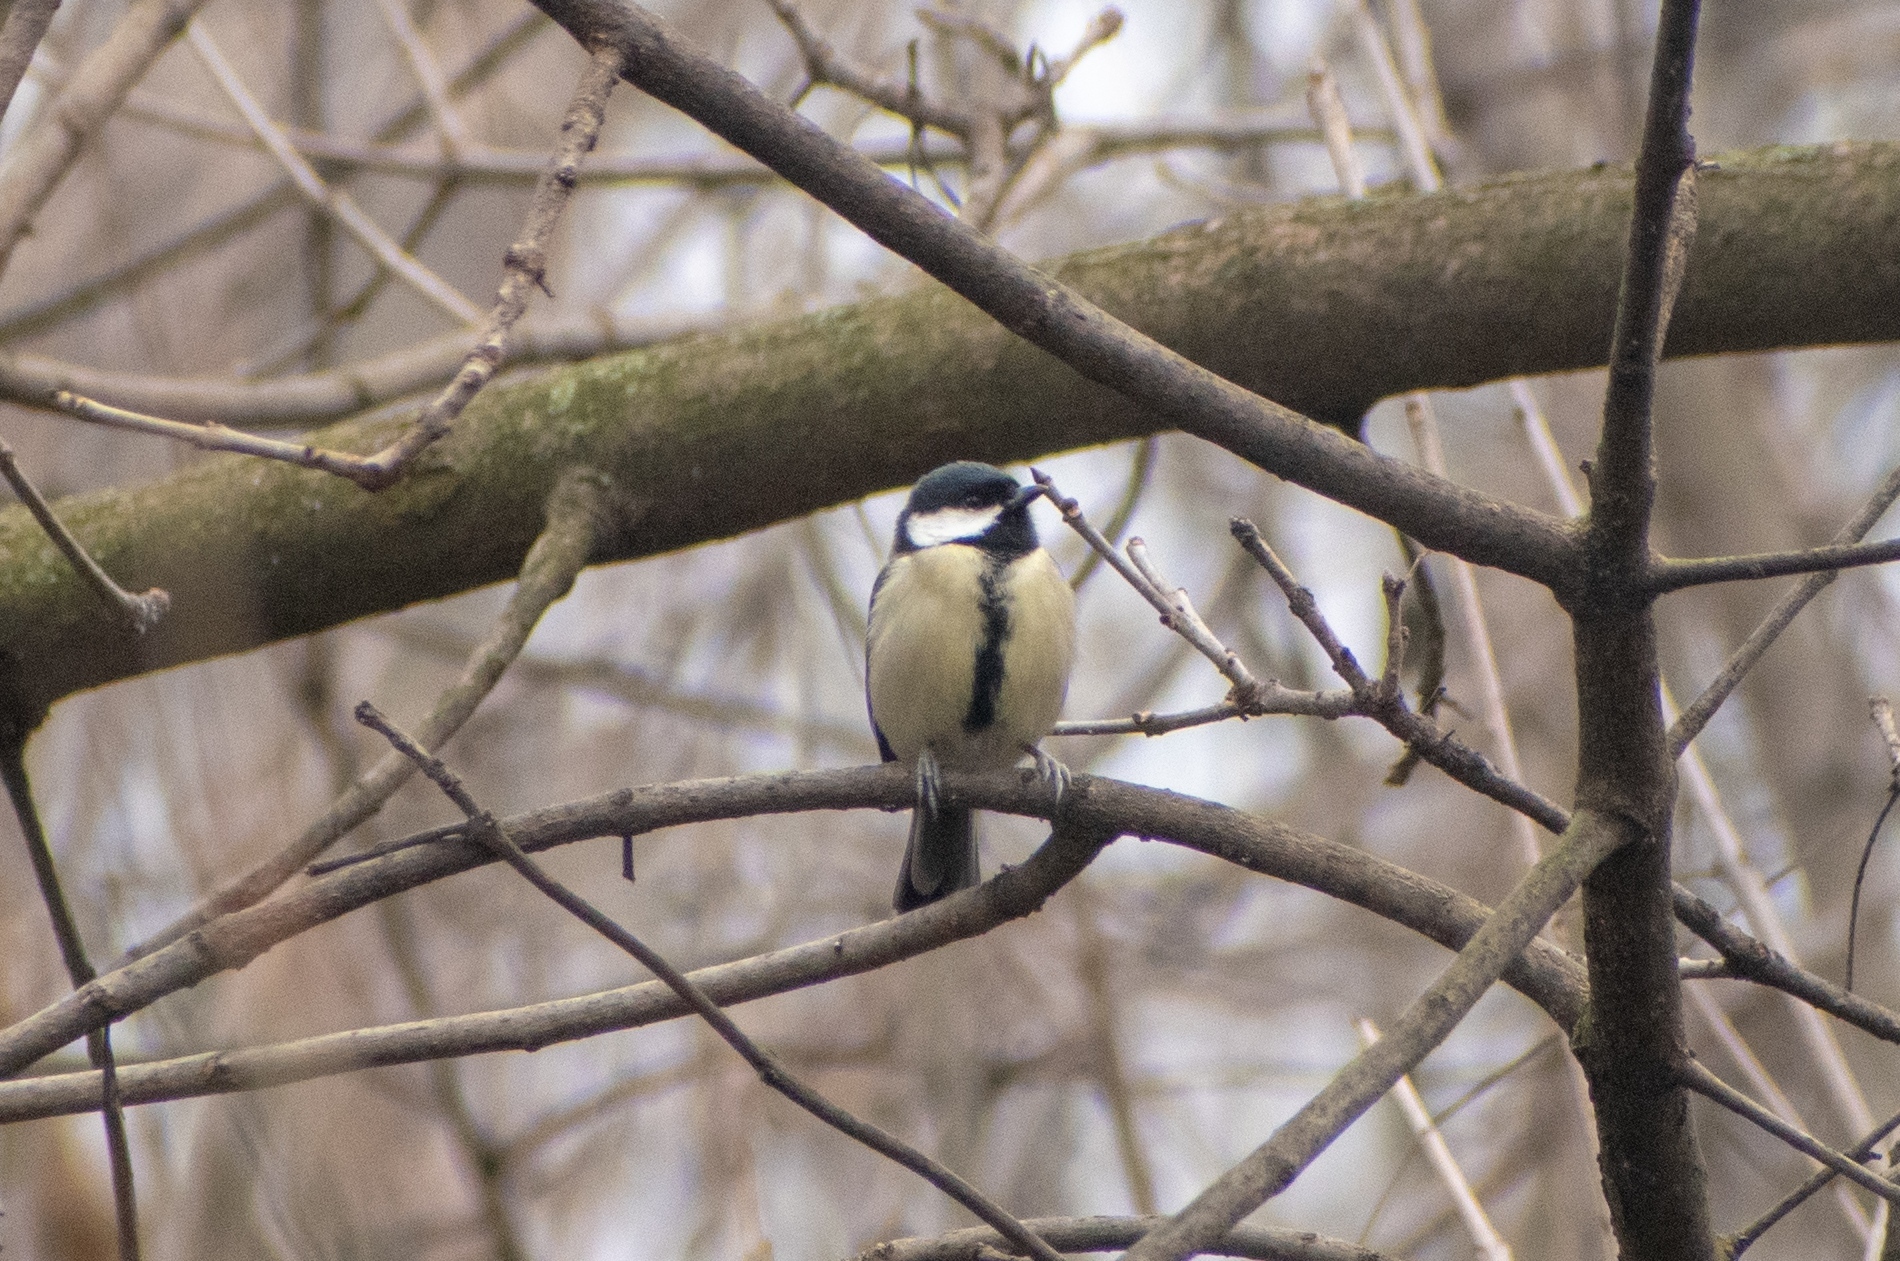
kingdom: Animalia
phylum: Chordata
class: Aves
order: Passeriformes
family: Paridae
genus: Parus
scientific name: Parus major
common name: Great tit
